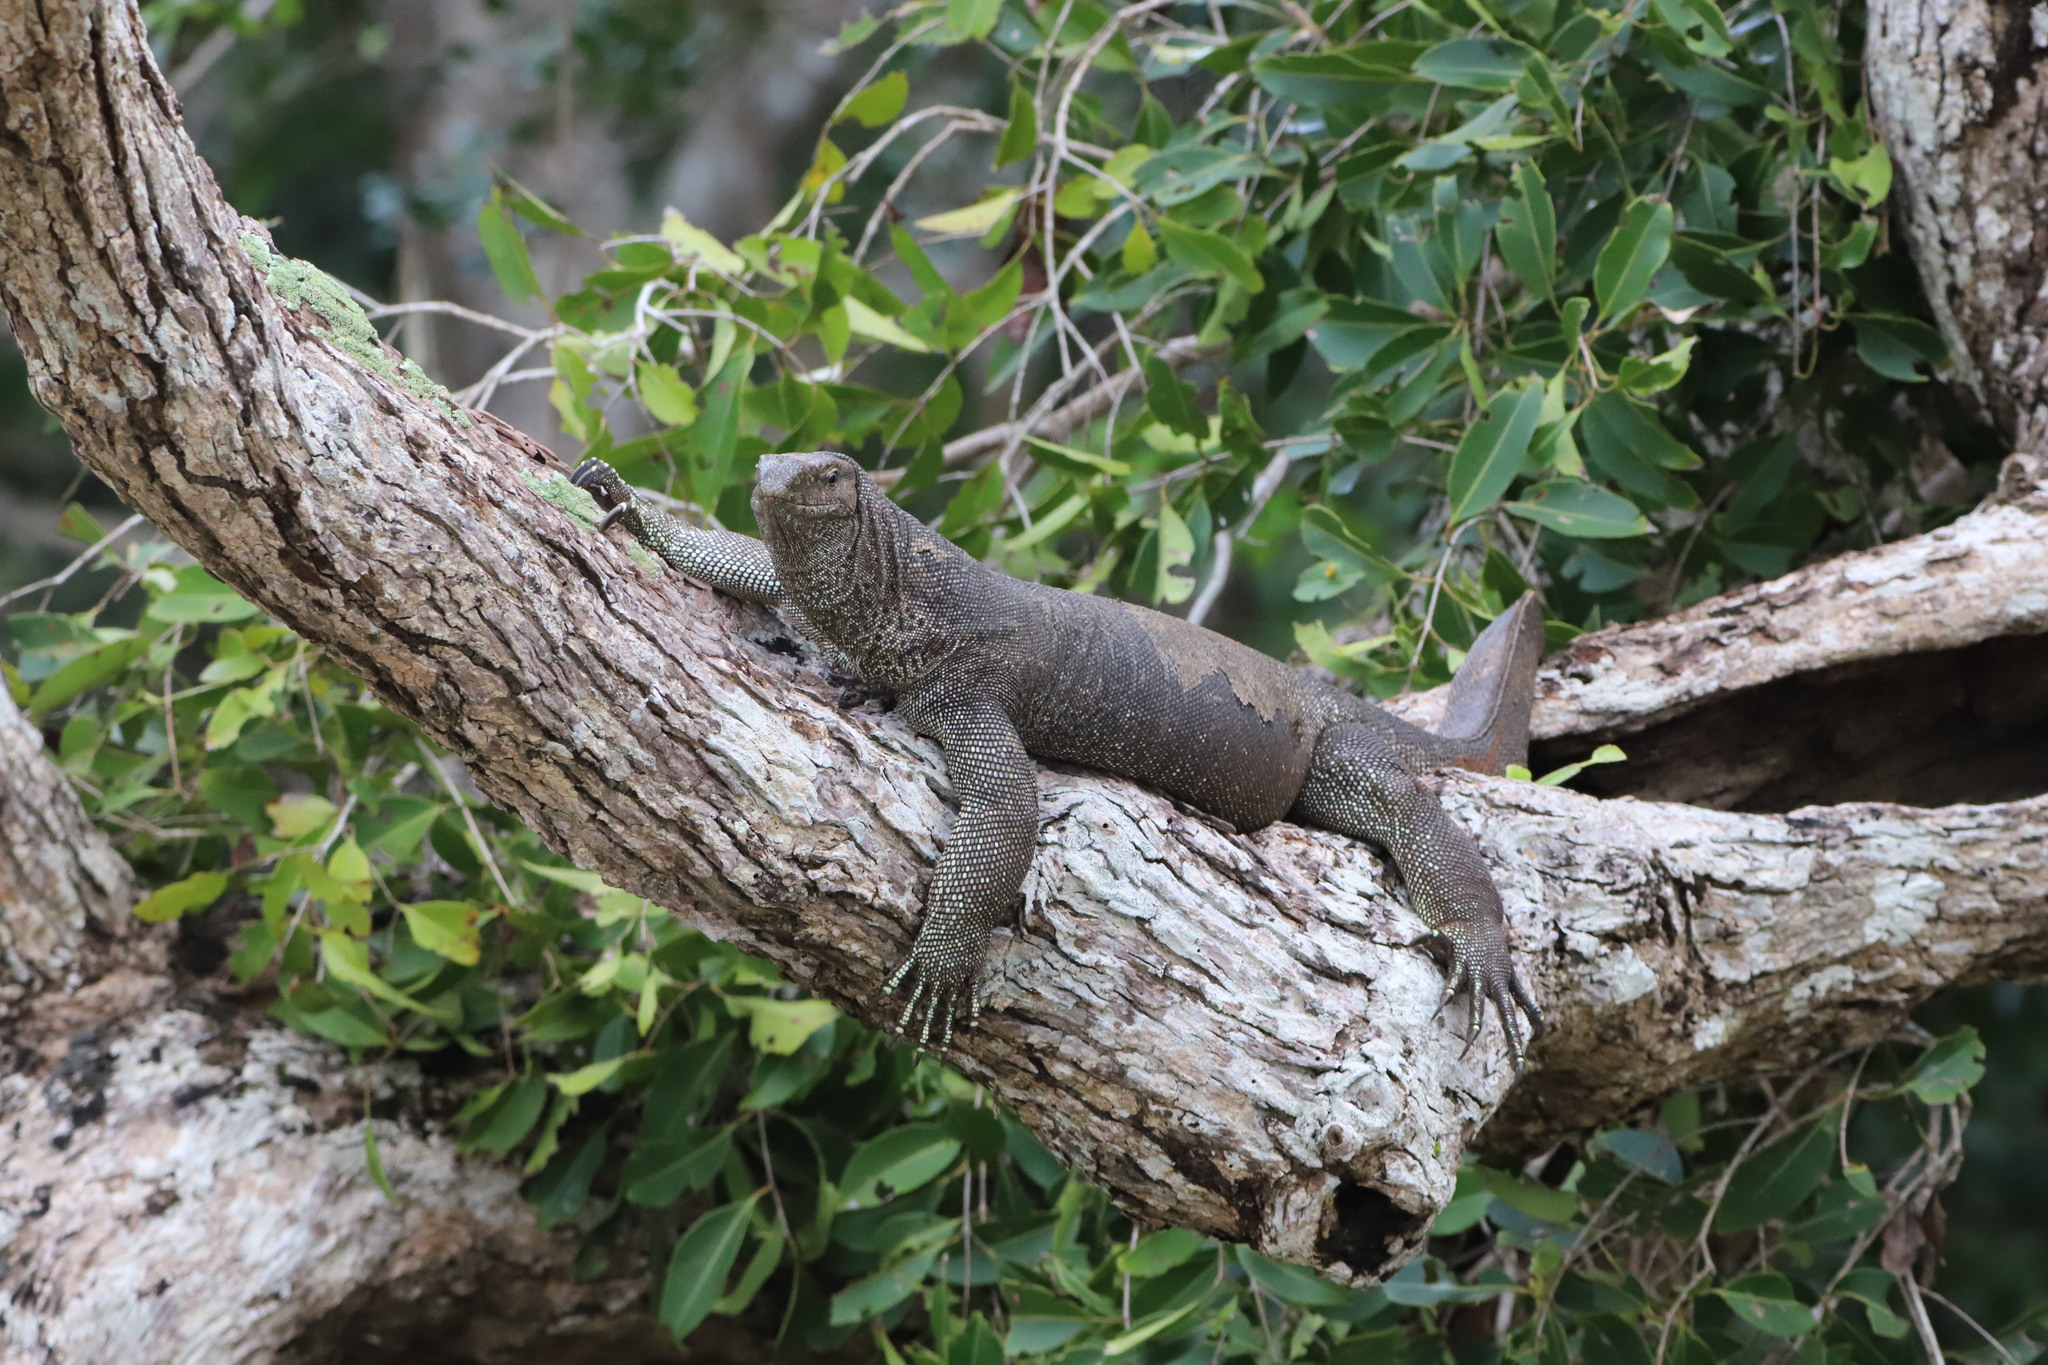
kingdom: Animalia
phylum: Chordata
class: Squamata
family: Varanidae
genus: Varanus
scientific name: Varanus bengalensis
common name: Bengal monitor
